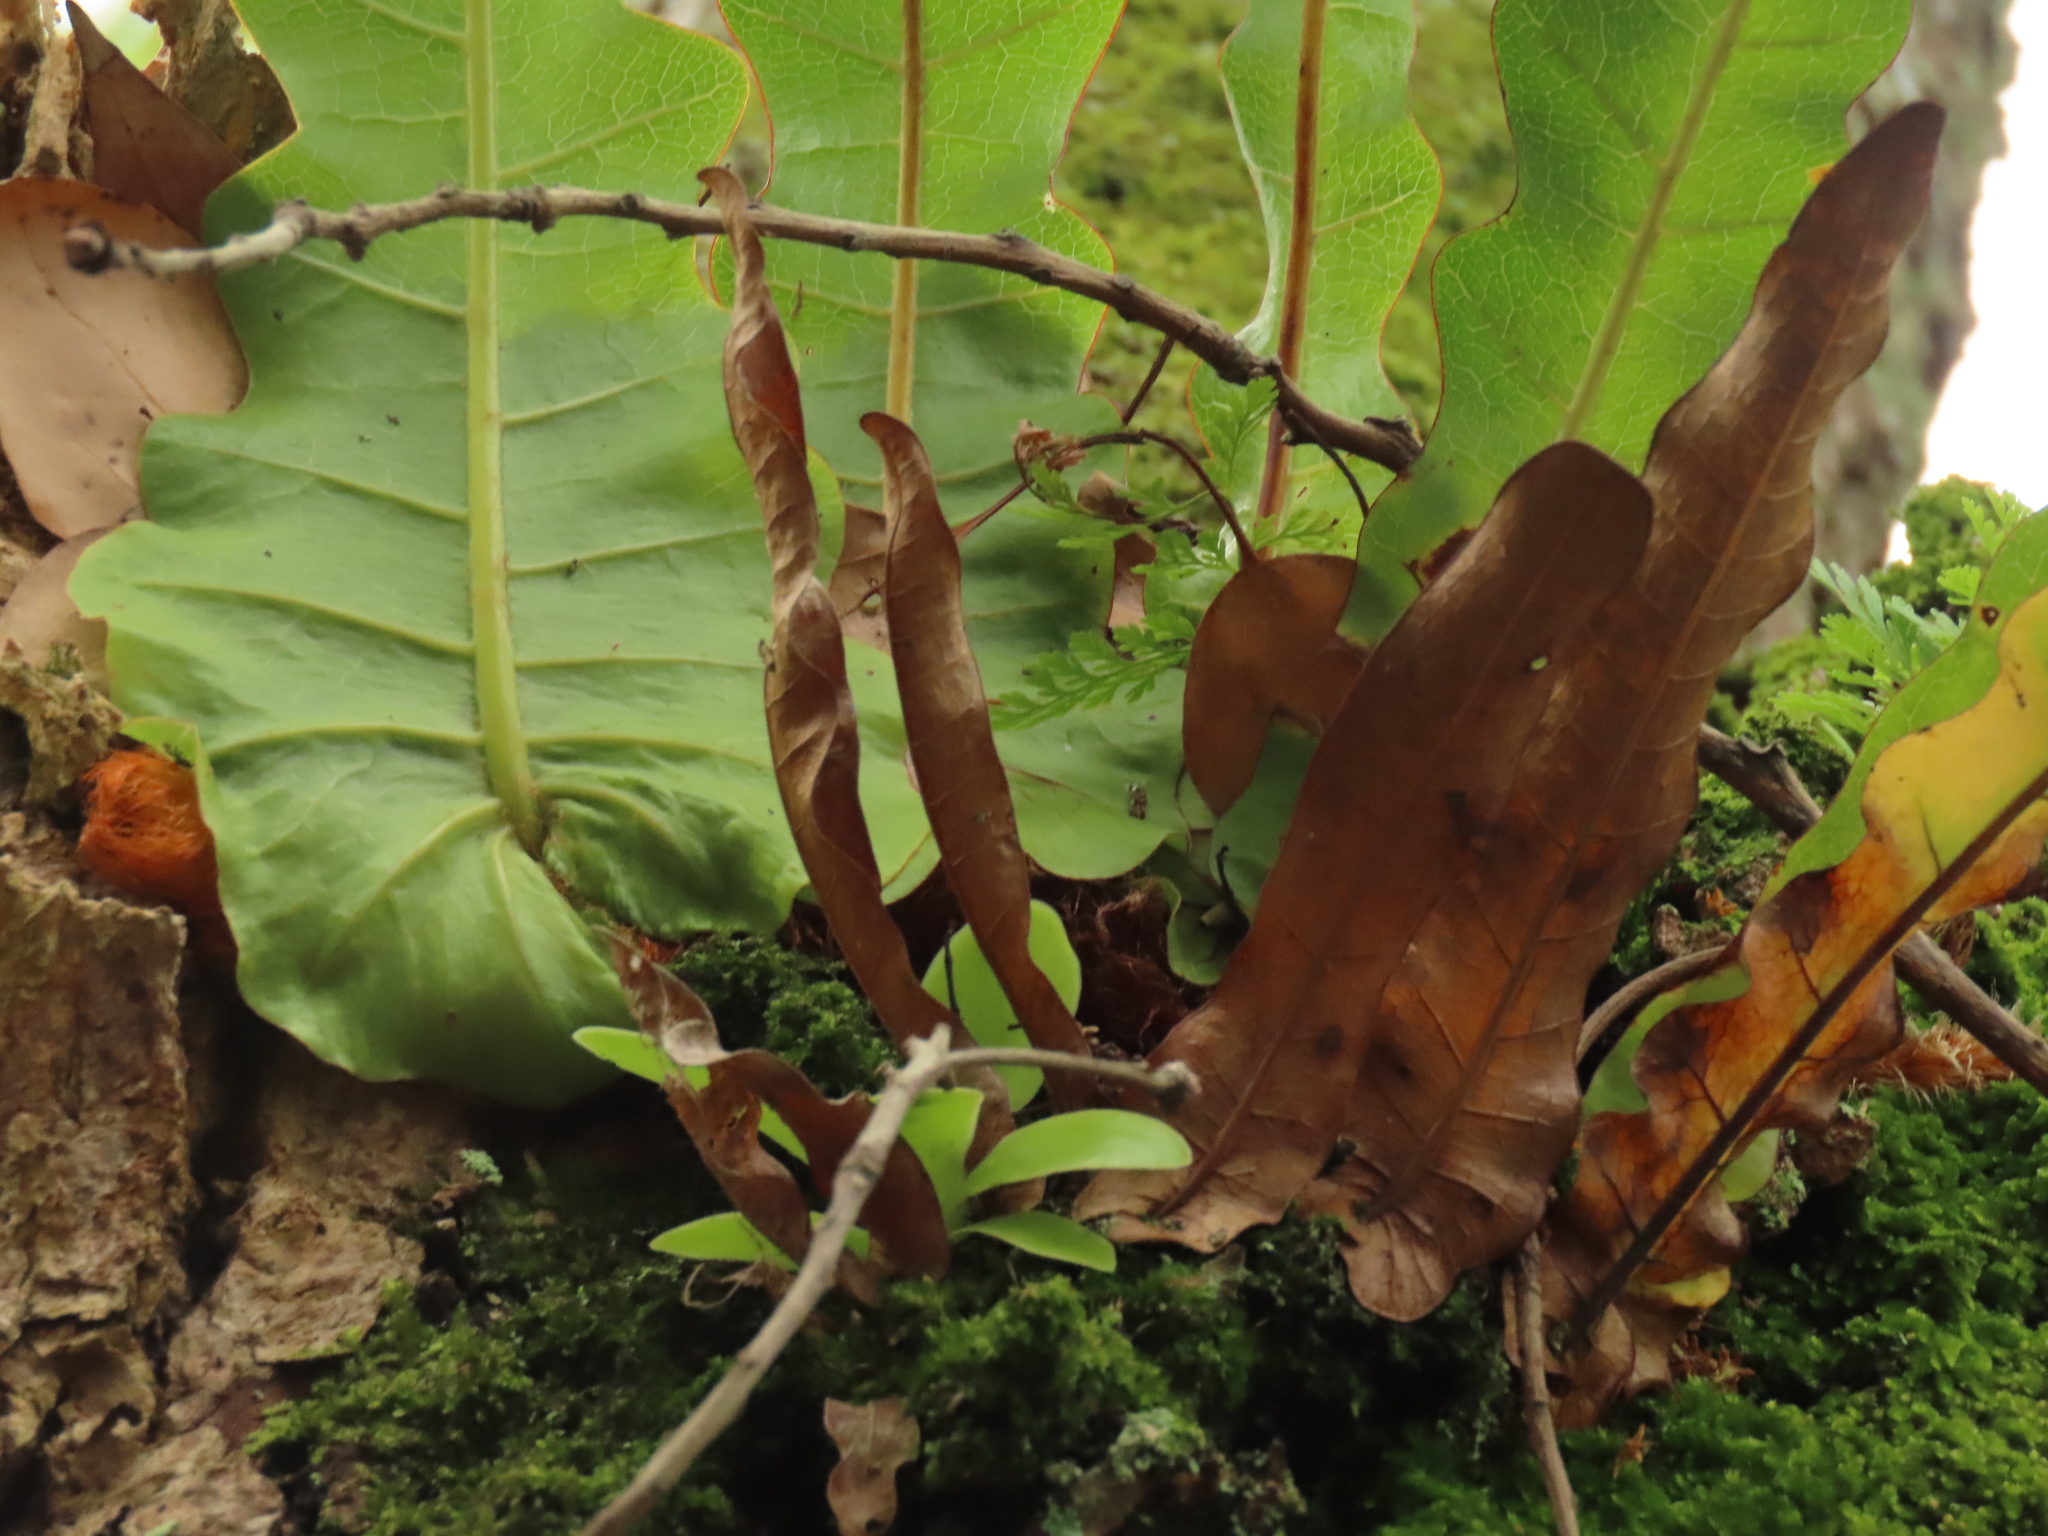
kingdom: Plantae
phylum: Tracheophyta
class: Polypodiopsida
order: Polypodiales
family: Polypodiaceae
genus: Drynaria
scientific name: Drynaria coronans
